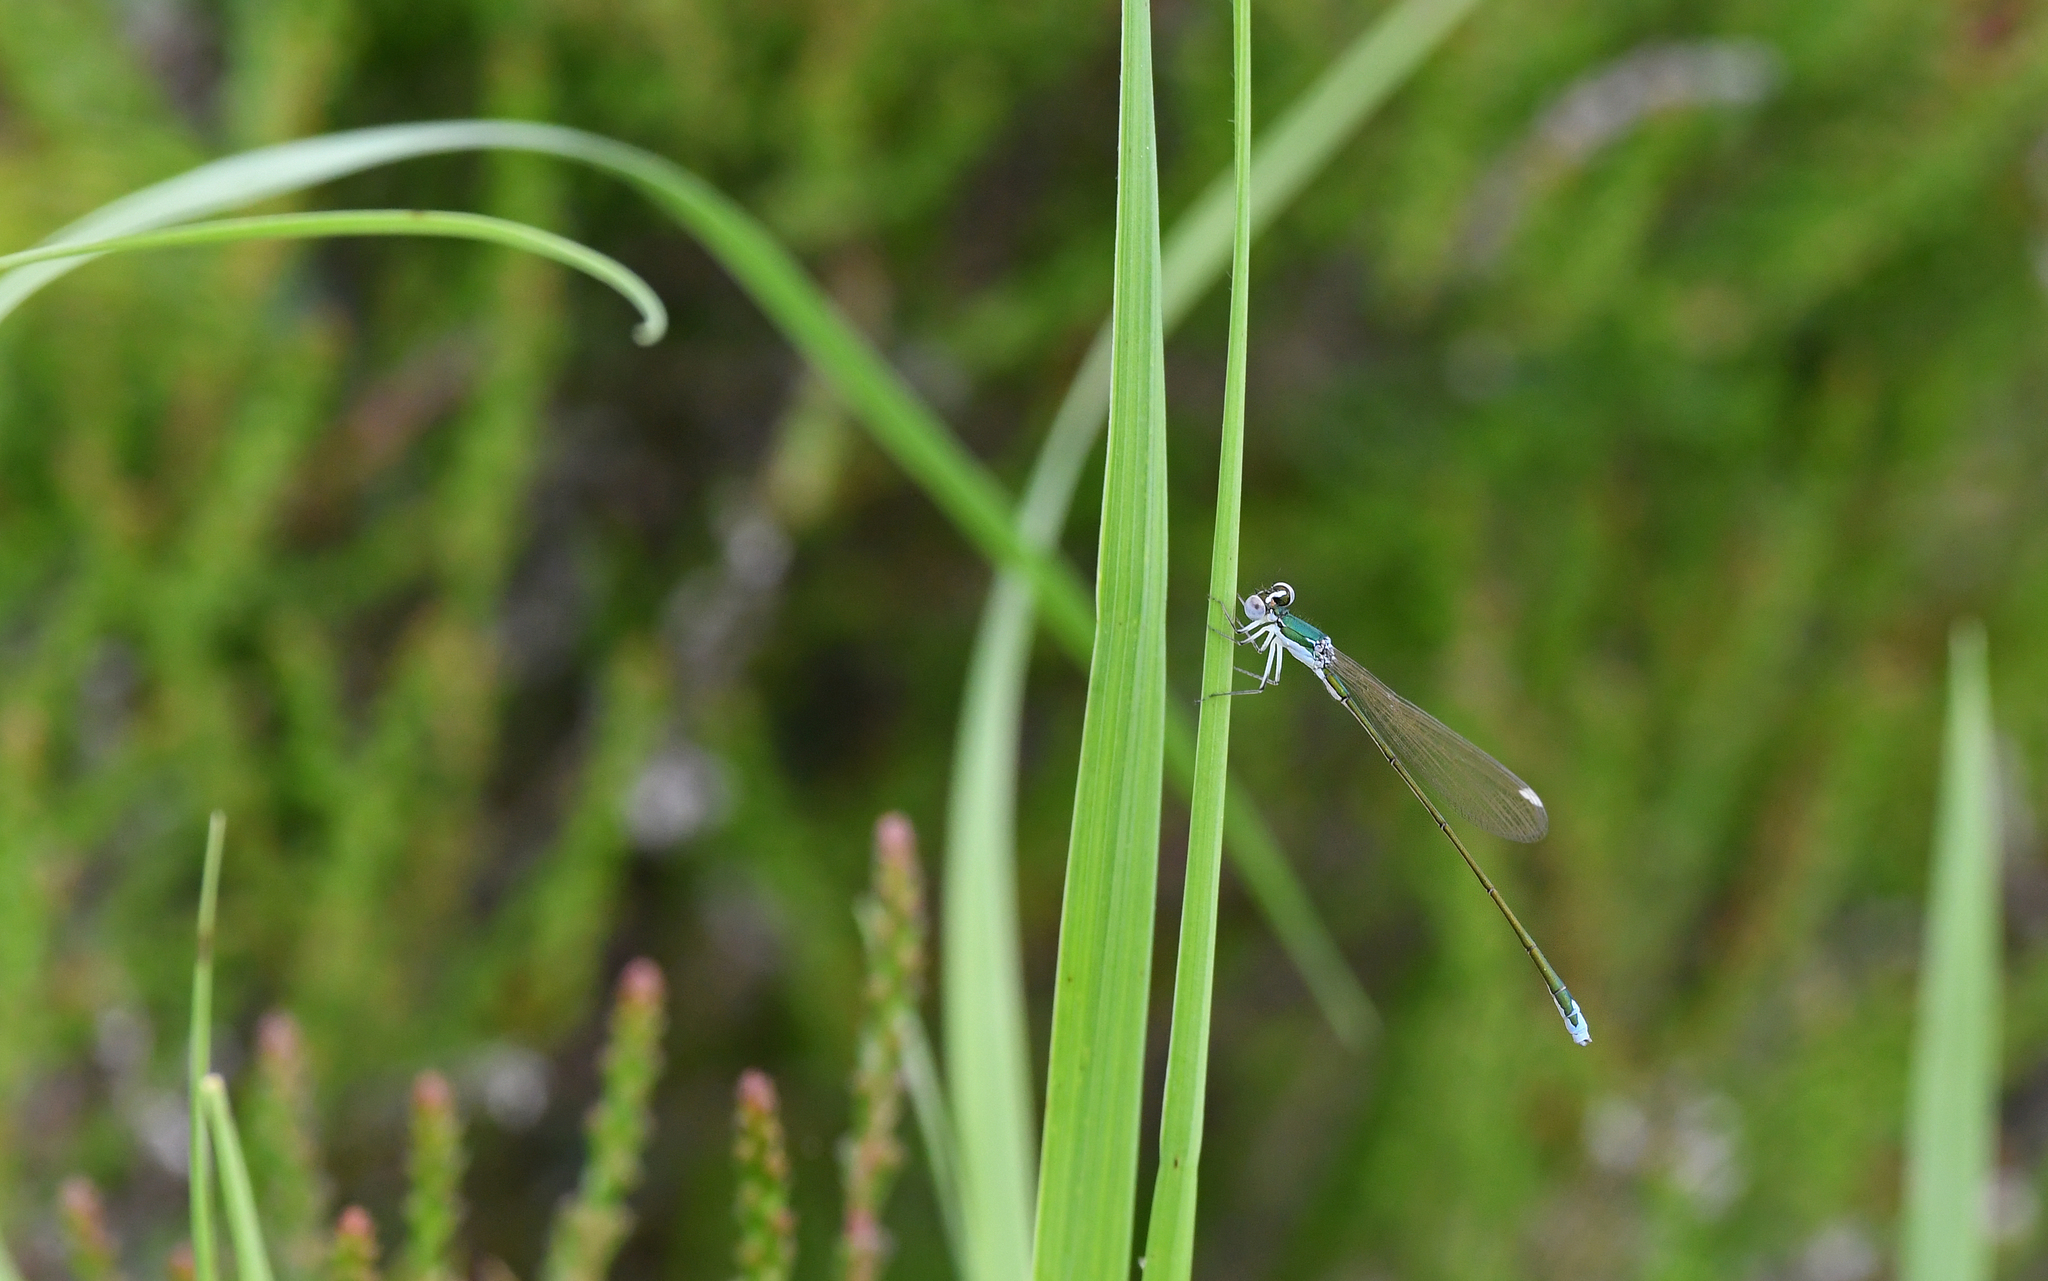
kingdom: Animalia
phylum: Arthropoda
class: Insecta
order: Odonata
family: Coenagrionidae
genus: Nehalennia
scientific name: Nehalennia speciosa
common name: Sedgling
